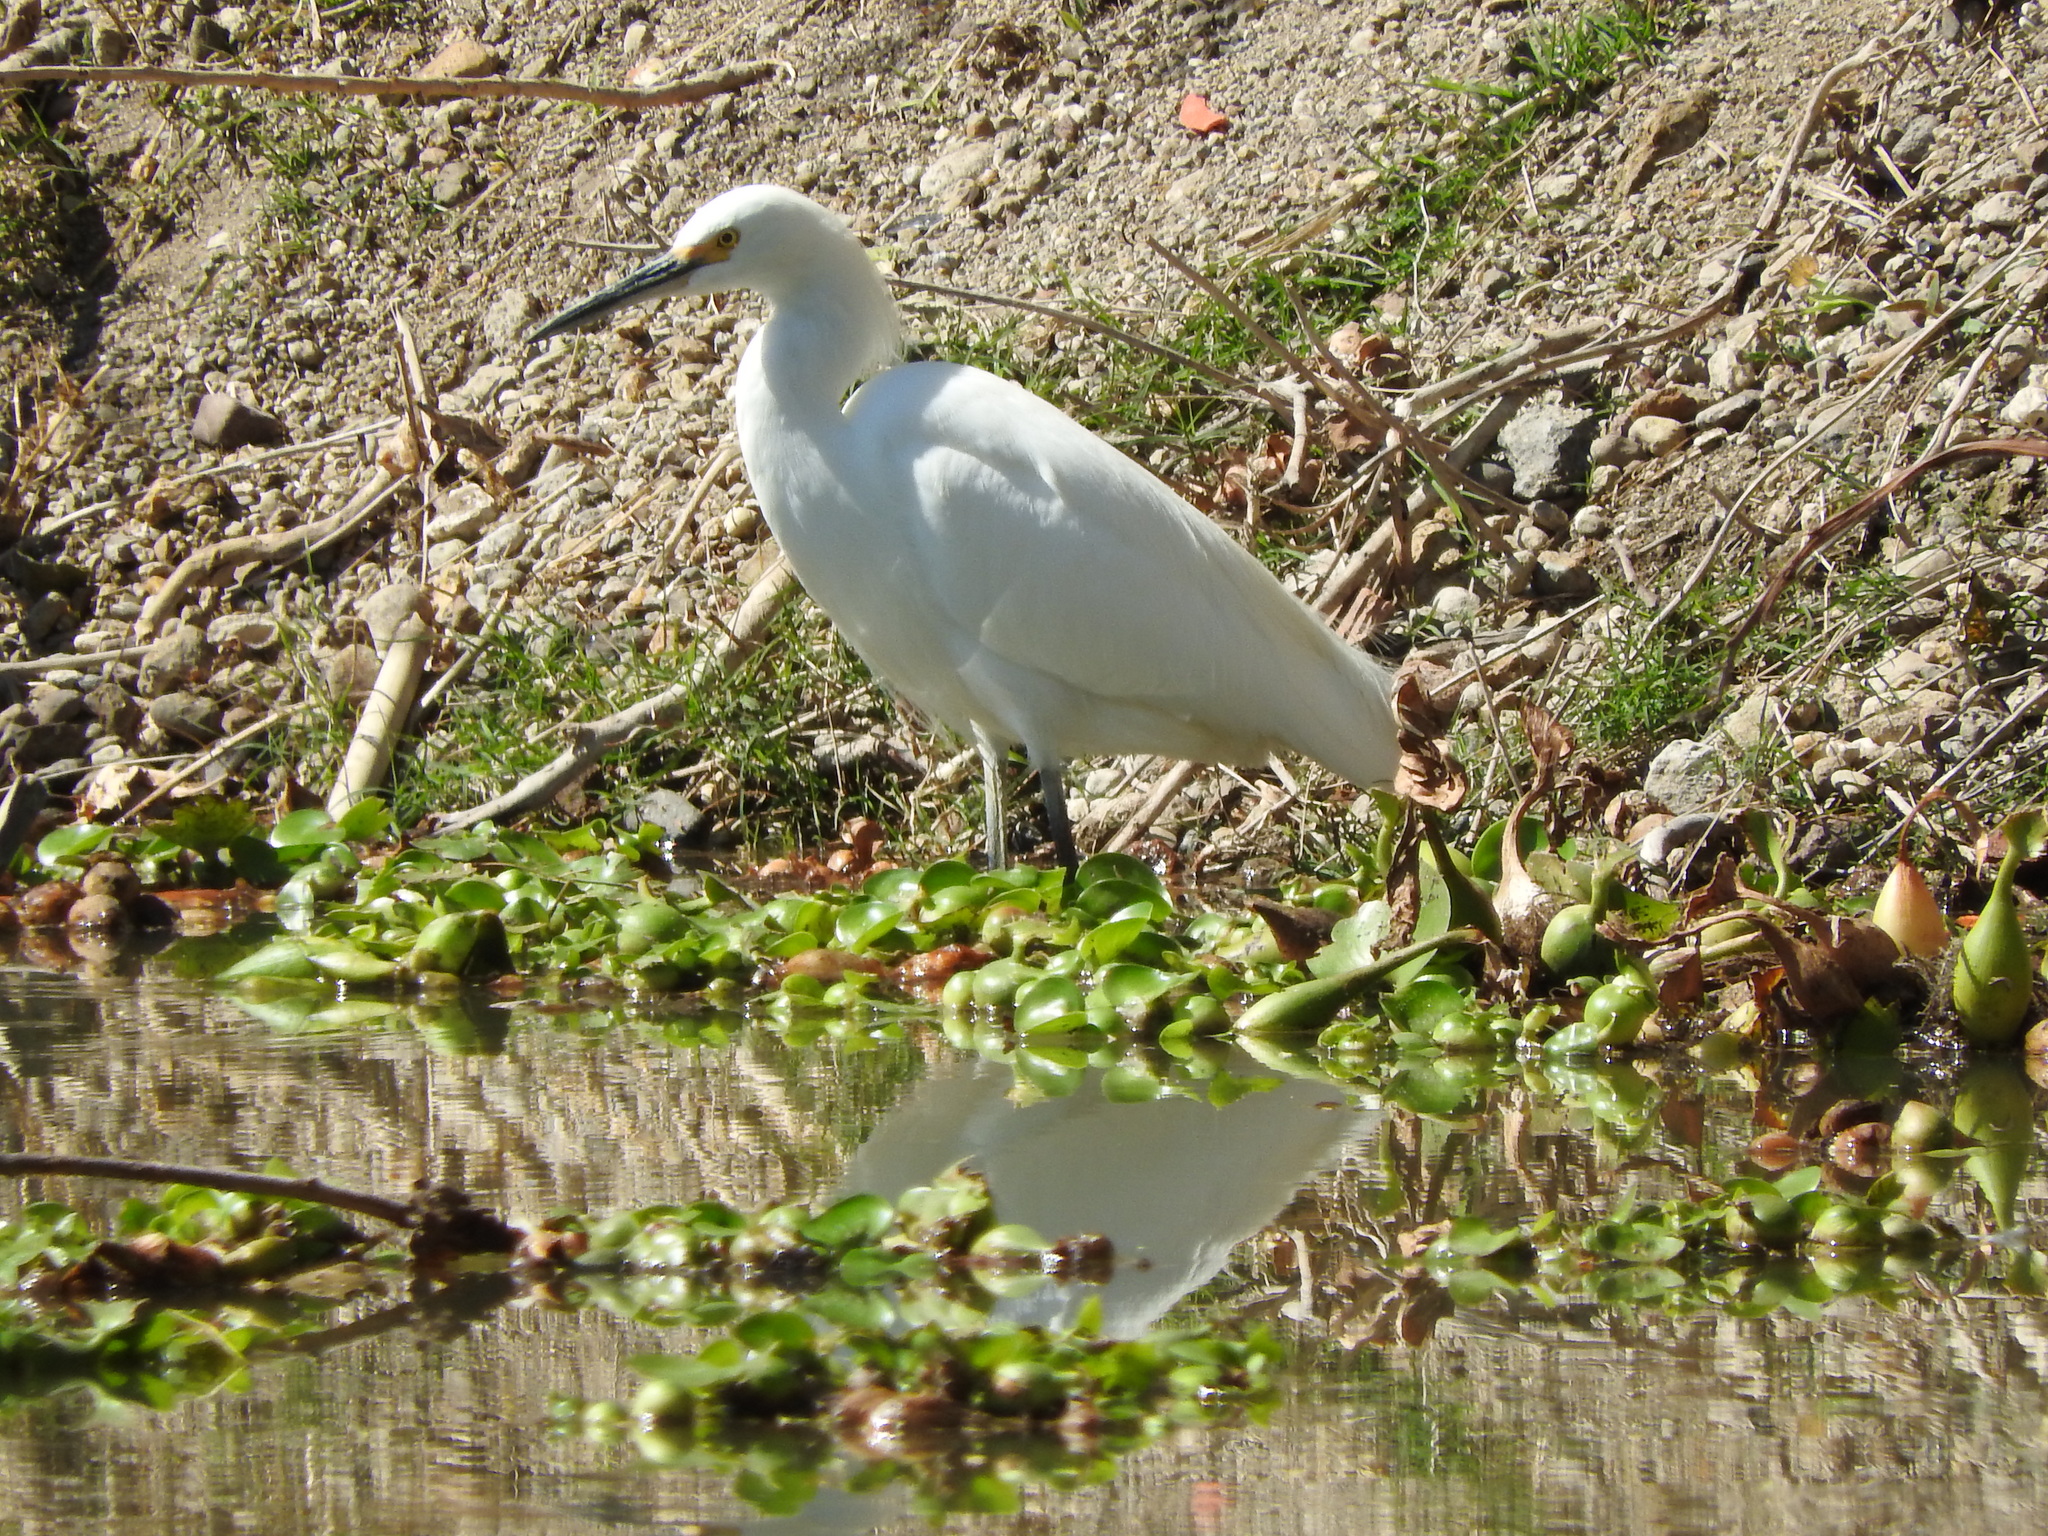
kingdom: Animalia
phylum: Chordata
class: Aves
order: Pelecaniformes
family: Ardeidae
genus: Egretta
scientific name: Egretta thula
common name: Snowy egret
